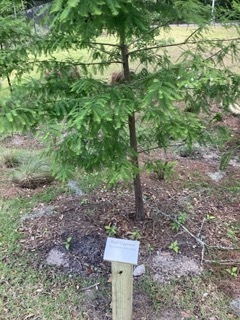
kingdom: Plantae
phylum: Tracheophyta
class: Pinopsida
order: Pinales
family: Cupressaceae
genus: Taxodium
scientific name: Taxodium distichum
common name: Bald cypress
